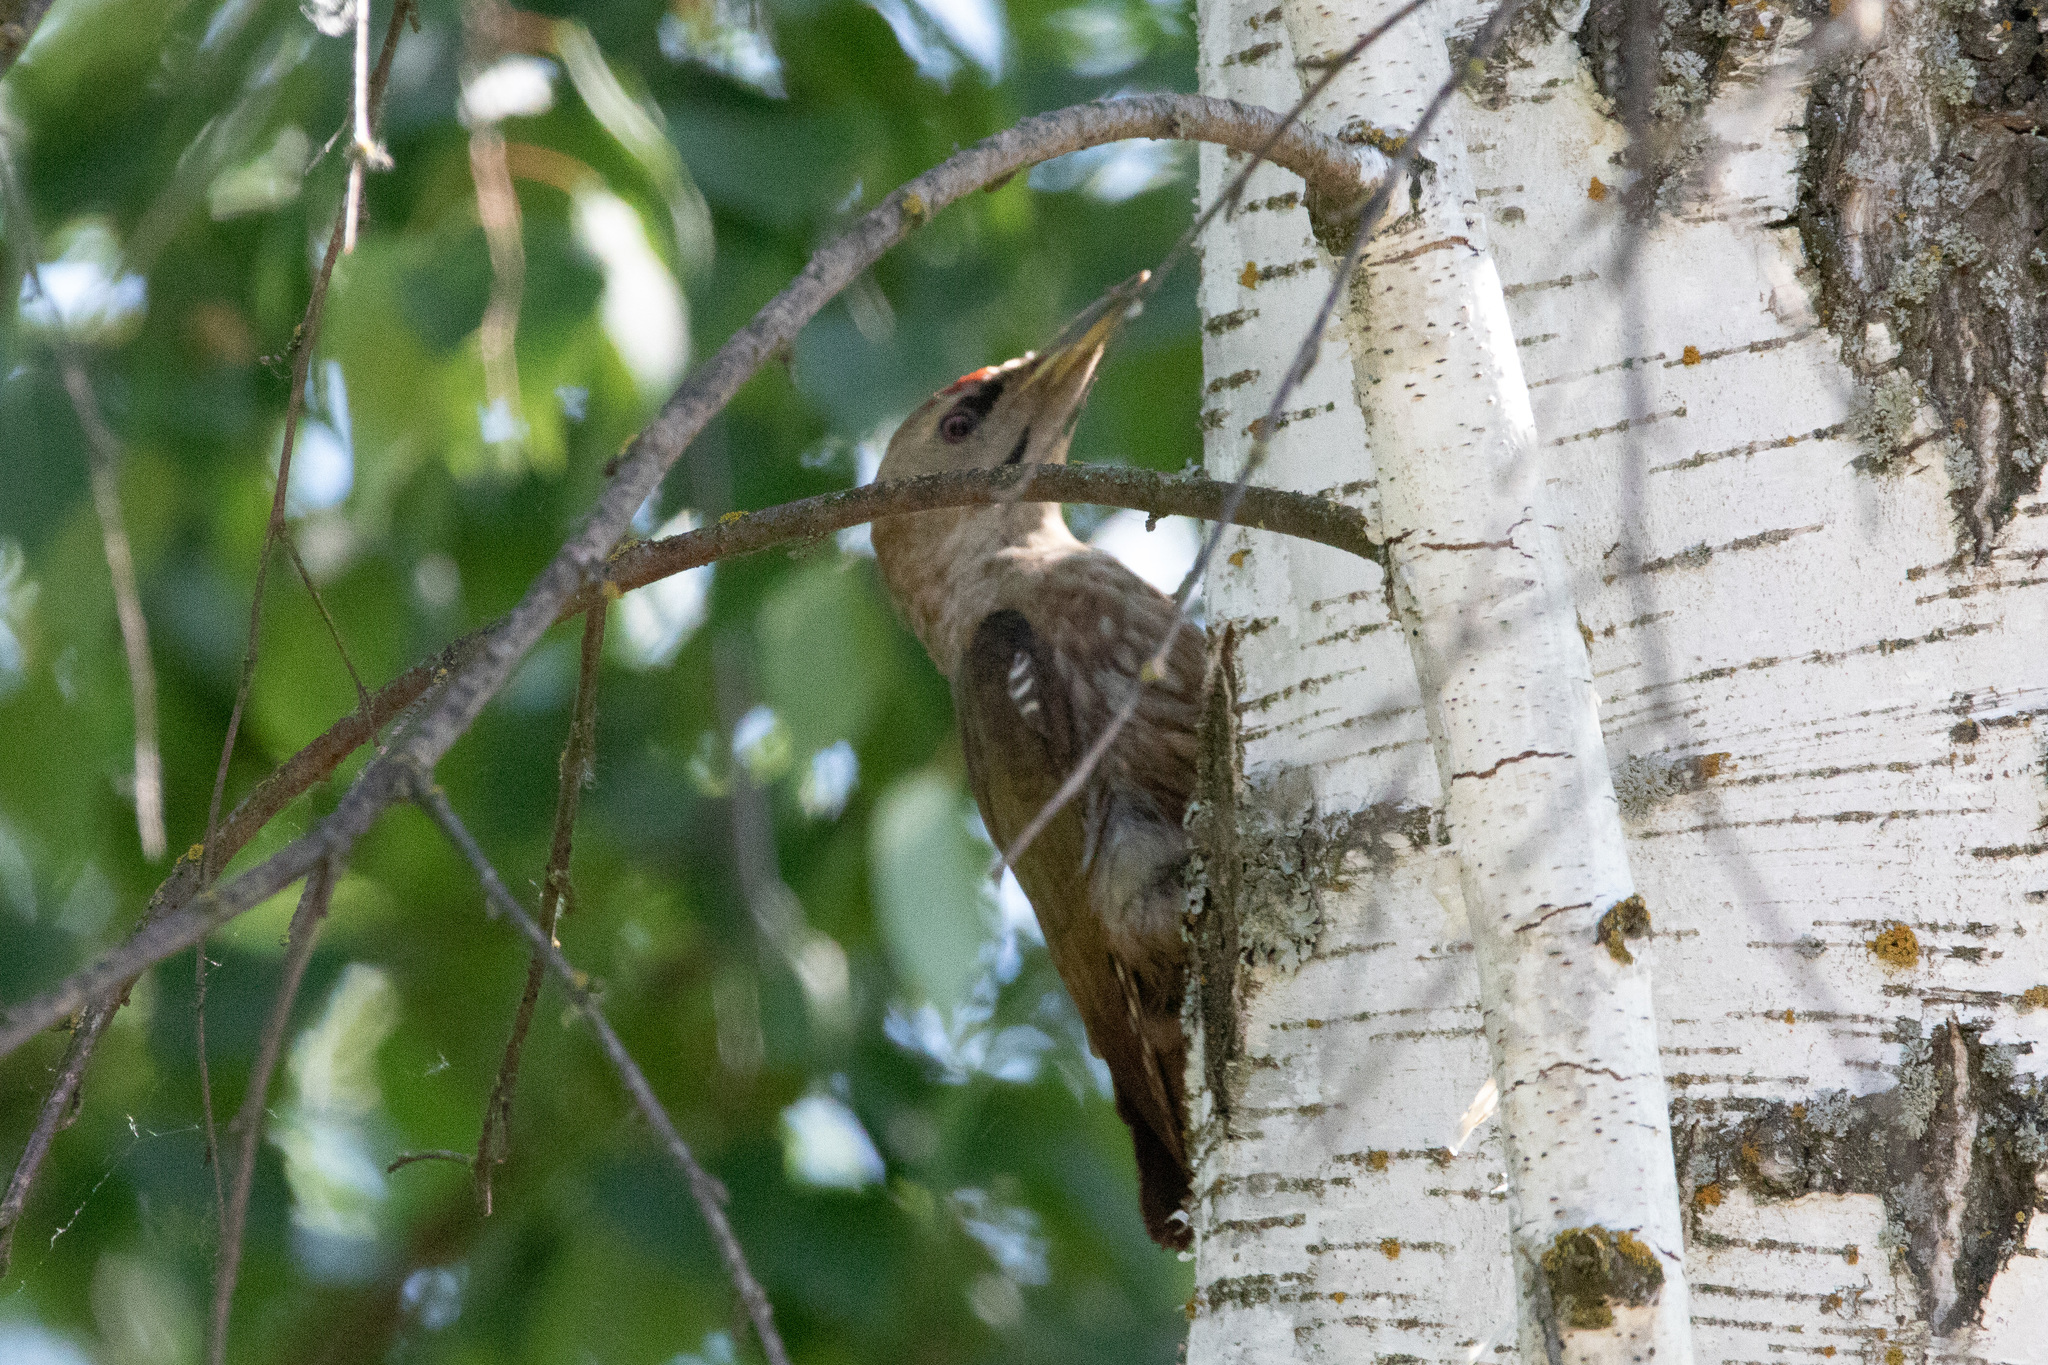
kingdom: Animalia
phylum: Chordata
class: Aves
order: Piciformes
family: Picidae
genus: Picus
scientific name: Picus canus
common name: Grey-headed woodpecker
